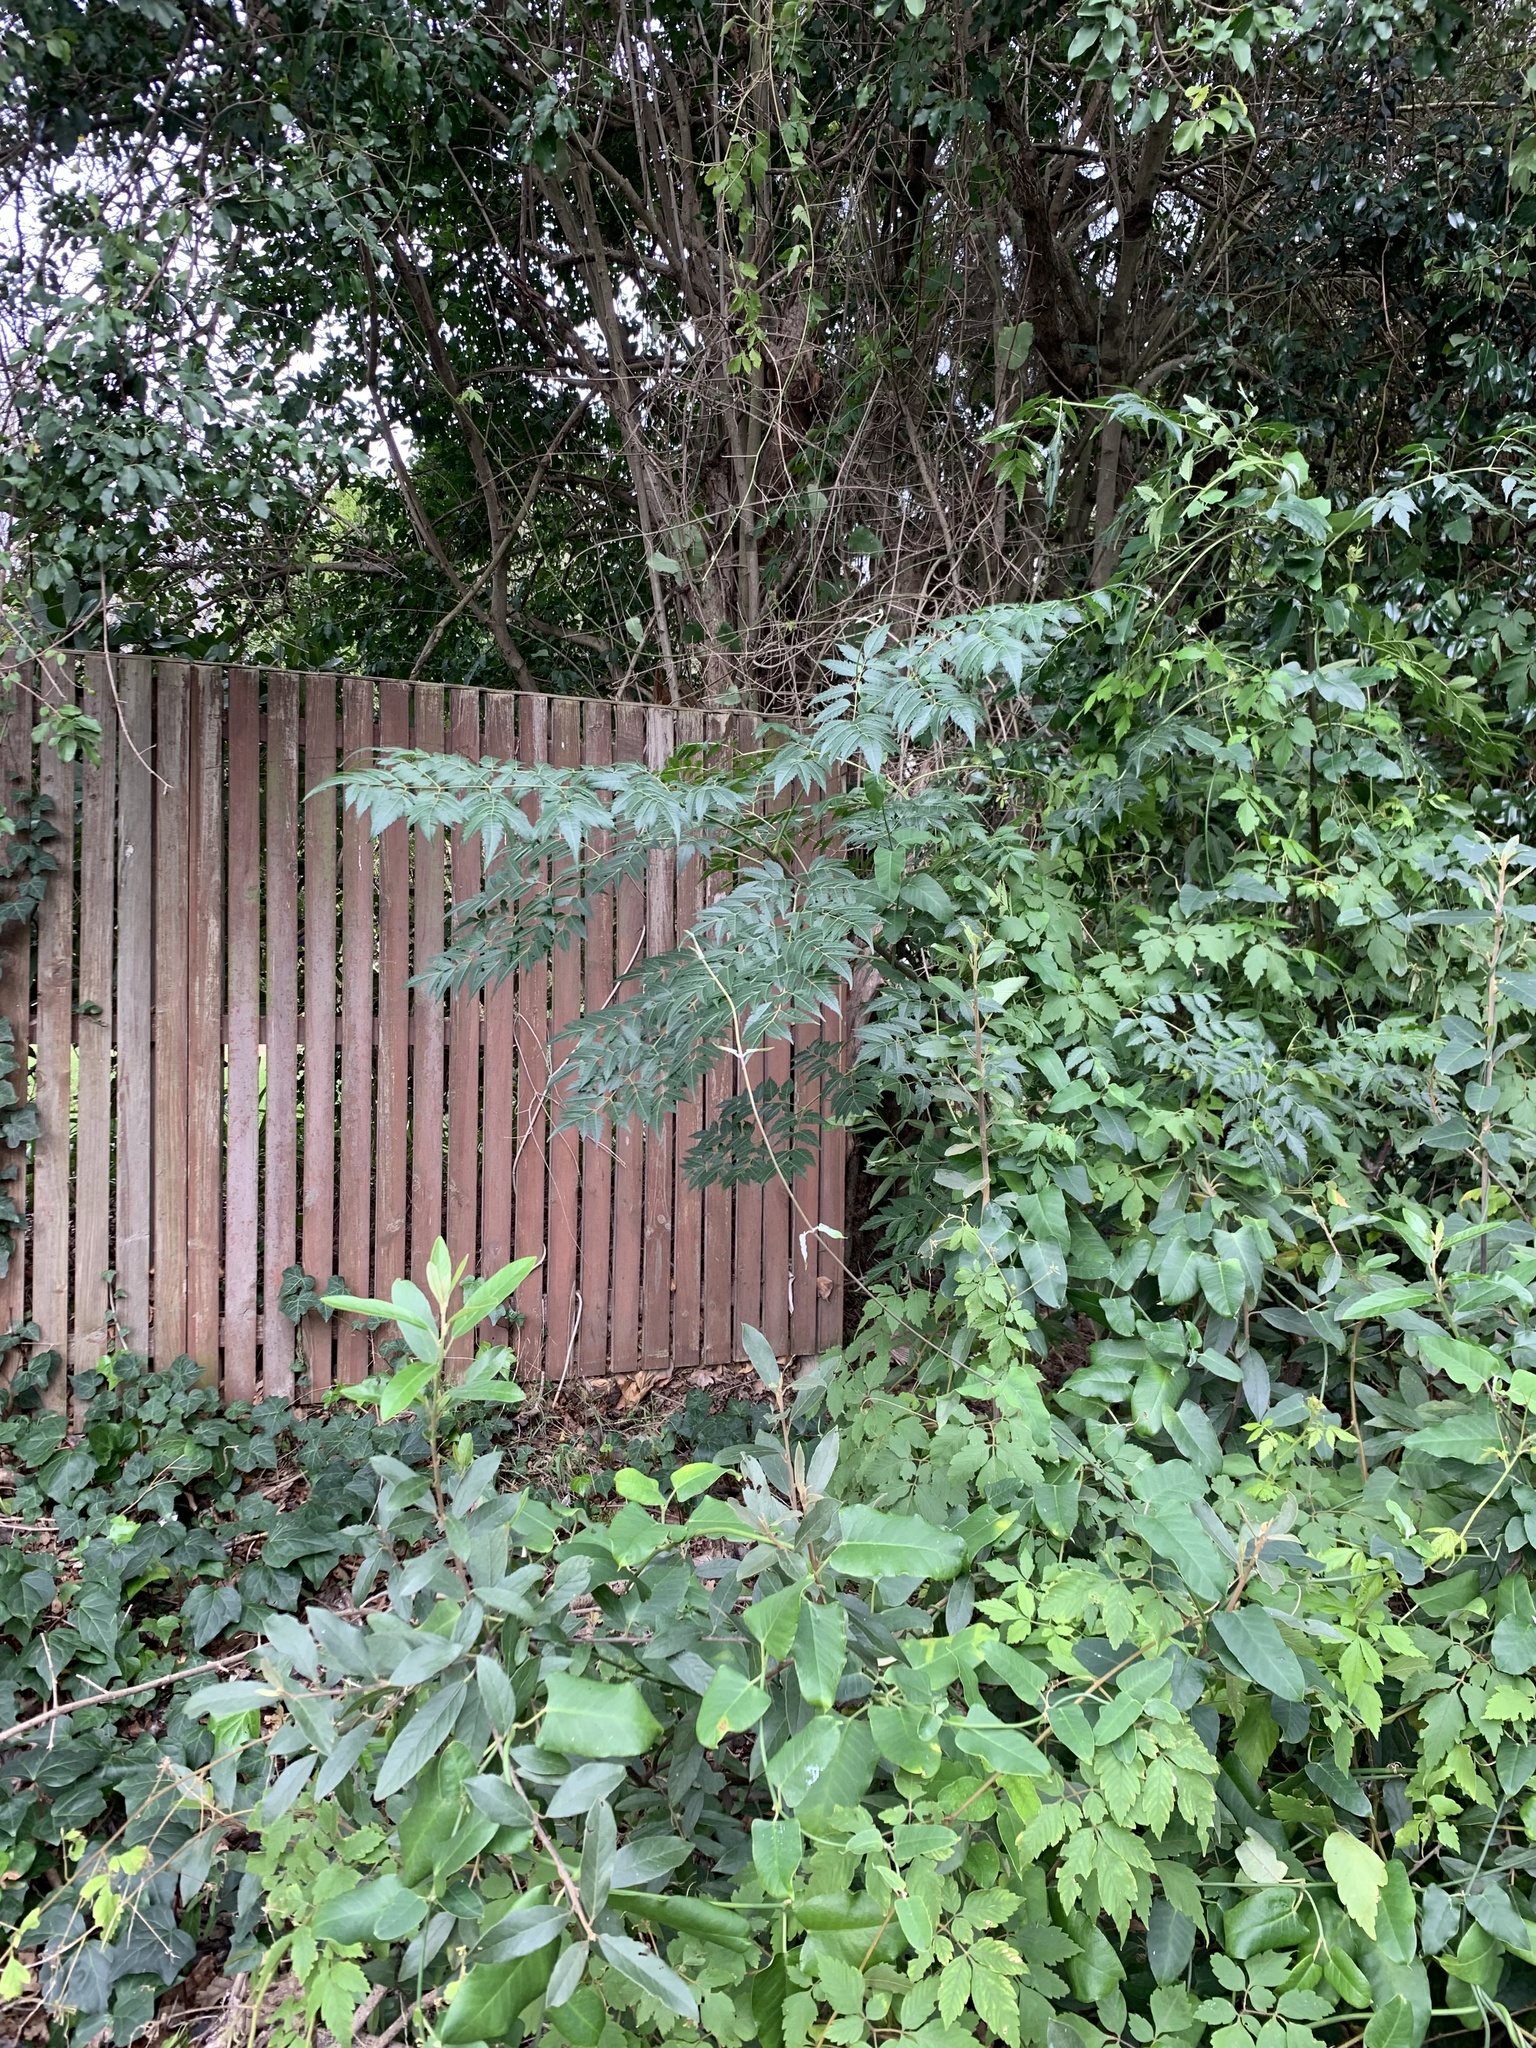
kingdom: Plantae
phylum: Tracheophyta
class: Magnoliopsida
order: Sapindales
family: Meliaceae
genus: Melia
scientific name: Melia azedarach
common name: Chinaberrytree
